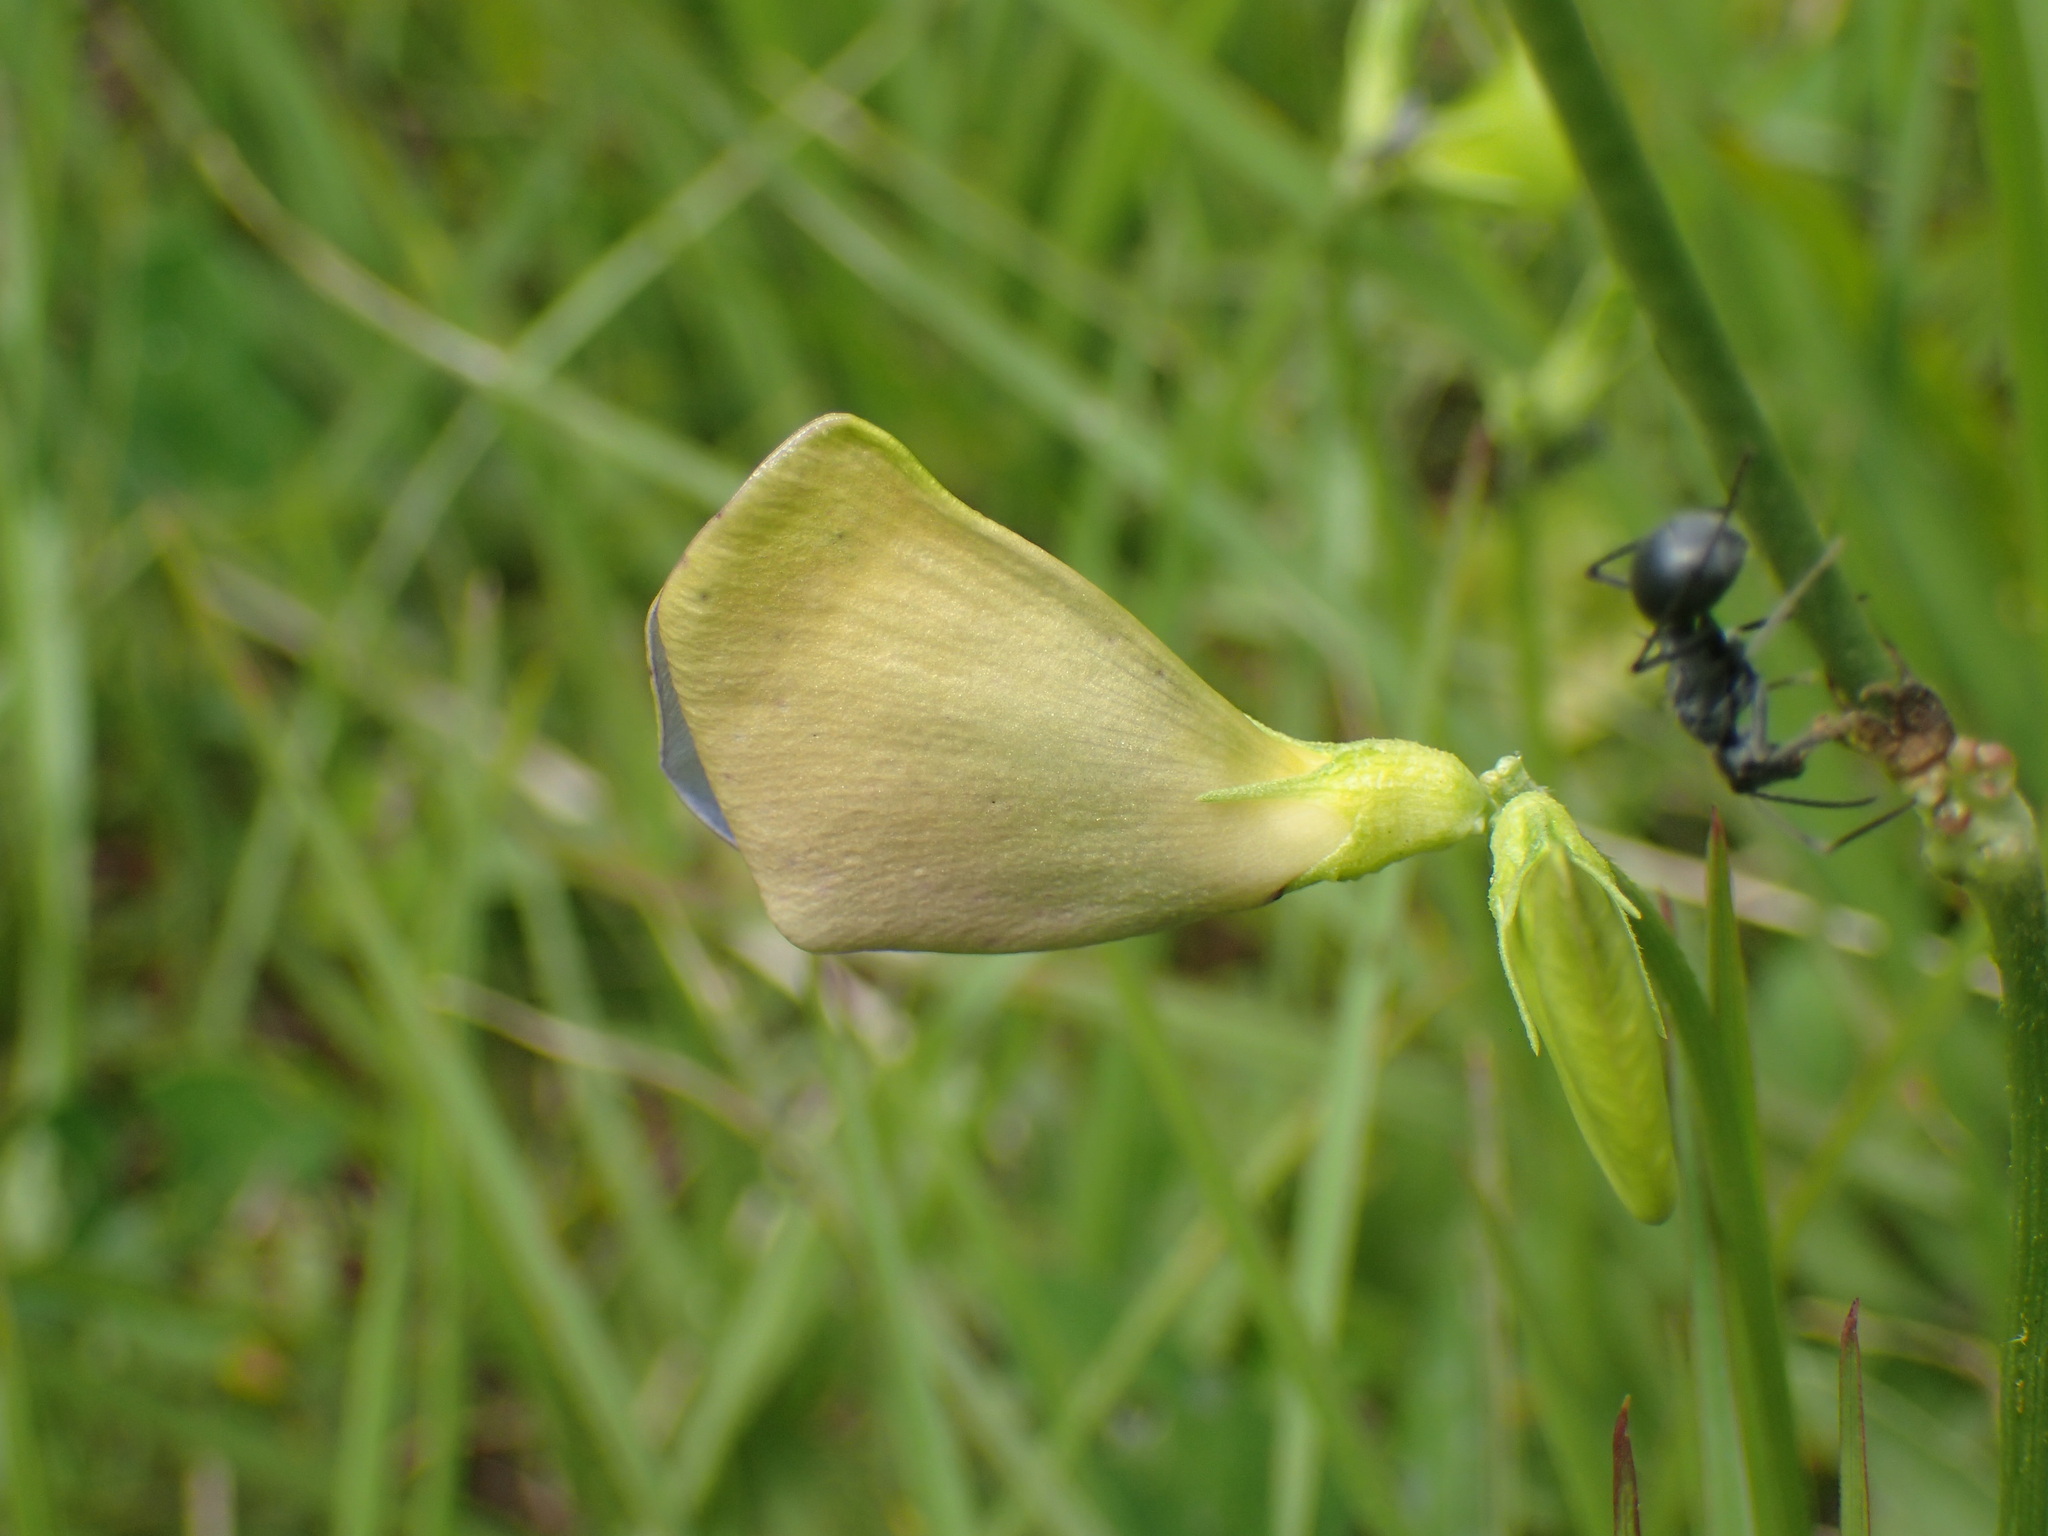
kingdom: Plantae
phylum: Tracheophyta
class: Magnoliopsida
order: Fabales
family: Fabaceae
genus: Vigna
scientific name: Vigna unguiculata
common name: Cowpea
